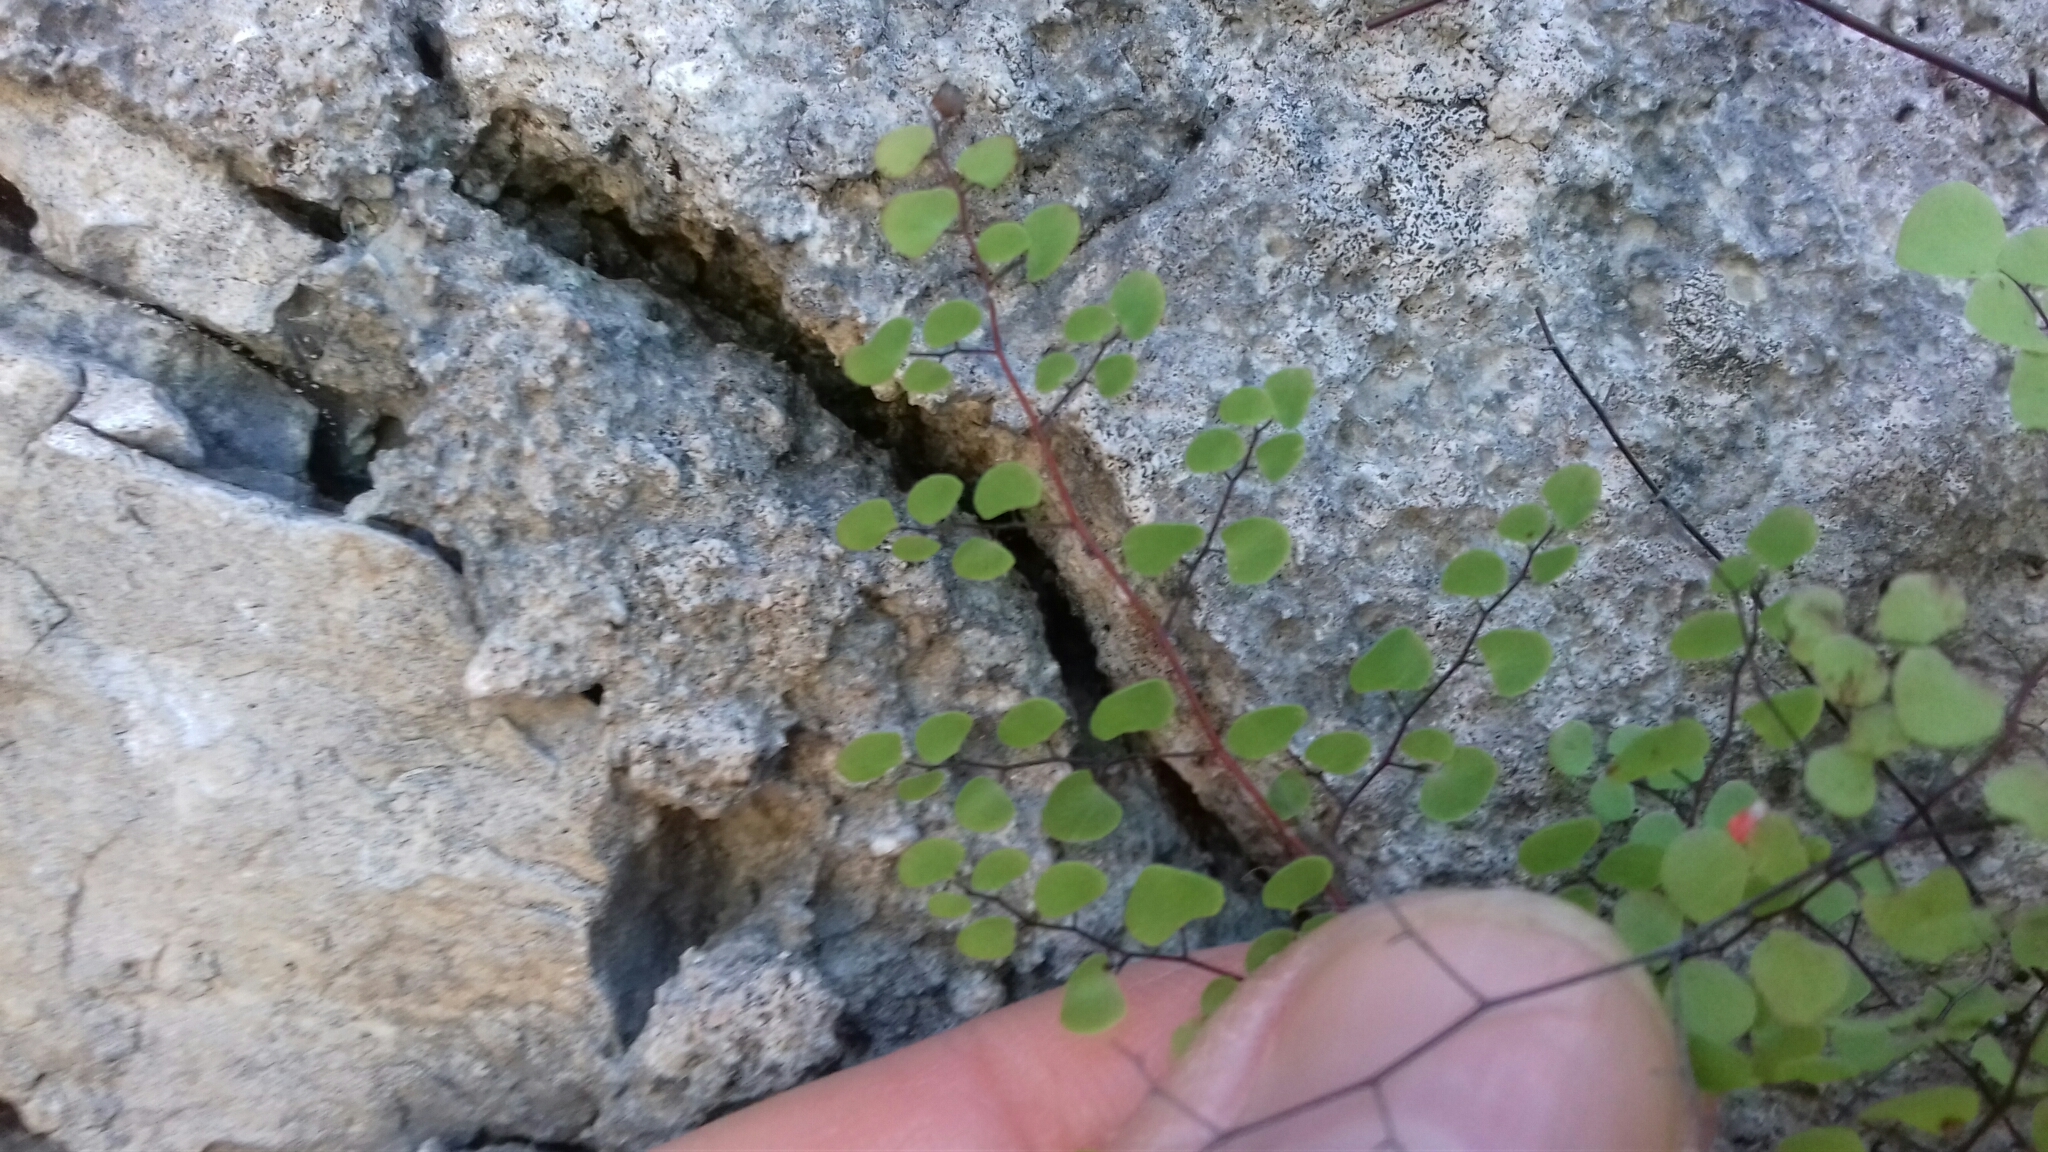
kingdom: Plantae
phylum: Tracheophyta
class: Polypodiopsida
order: Polypodiales
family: Pteridaceae
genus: Adiantum
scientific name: Adiantum tricholepis
